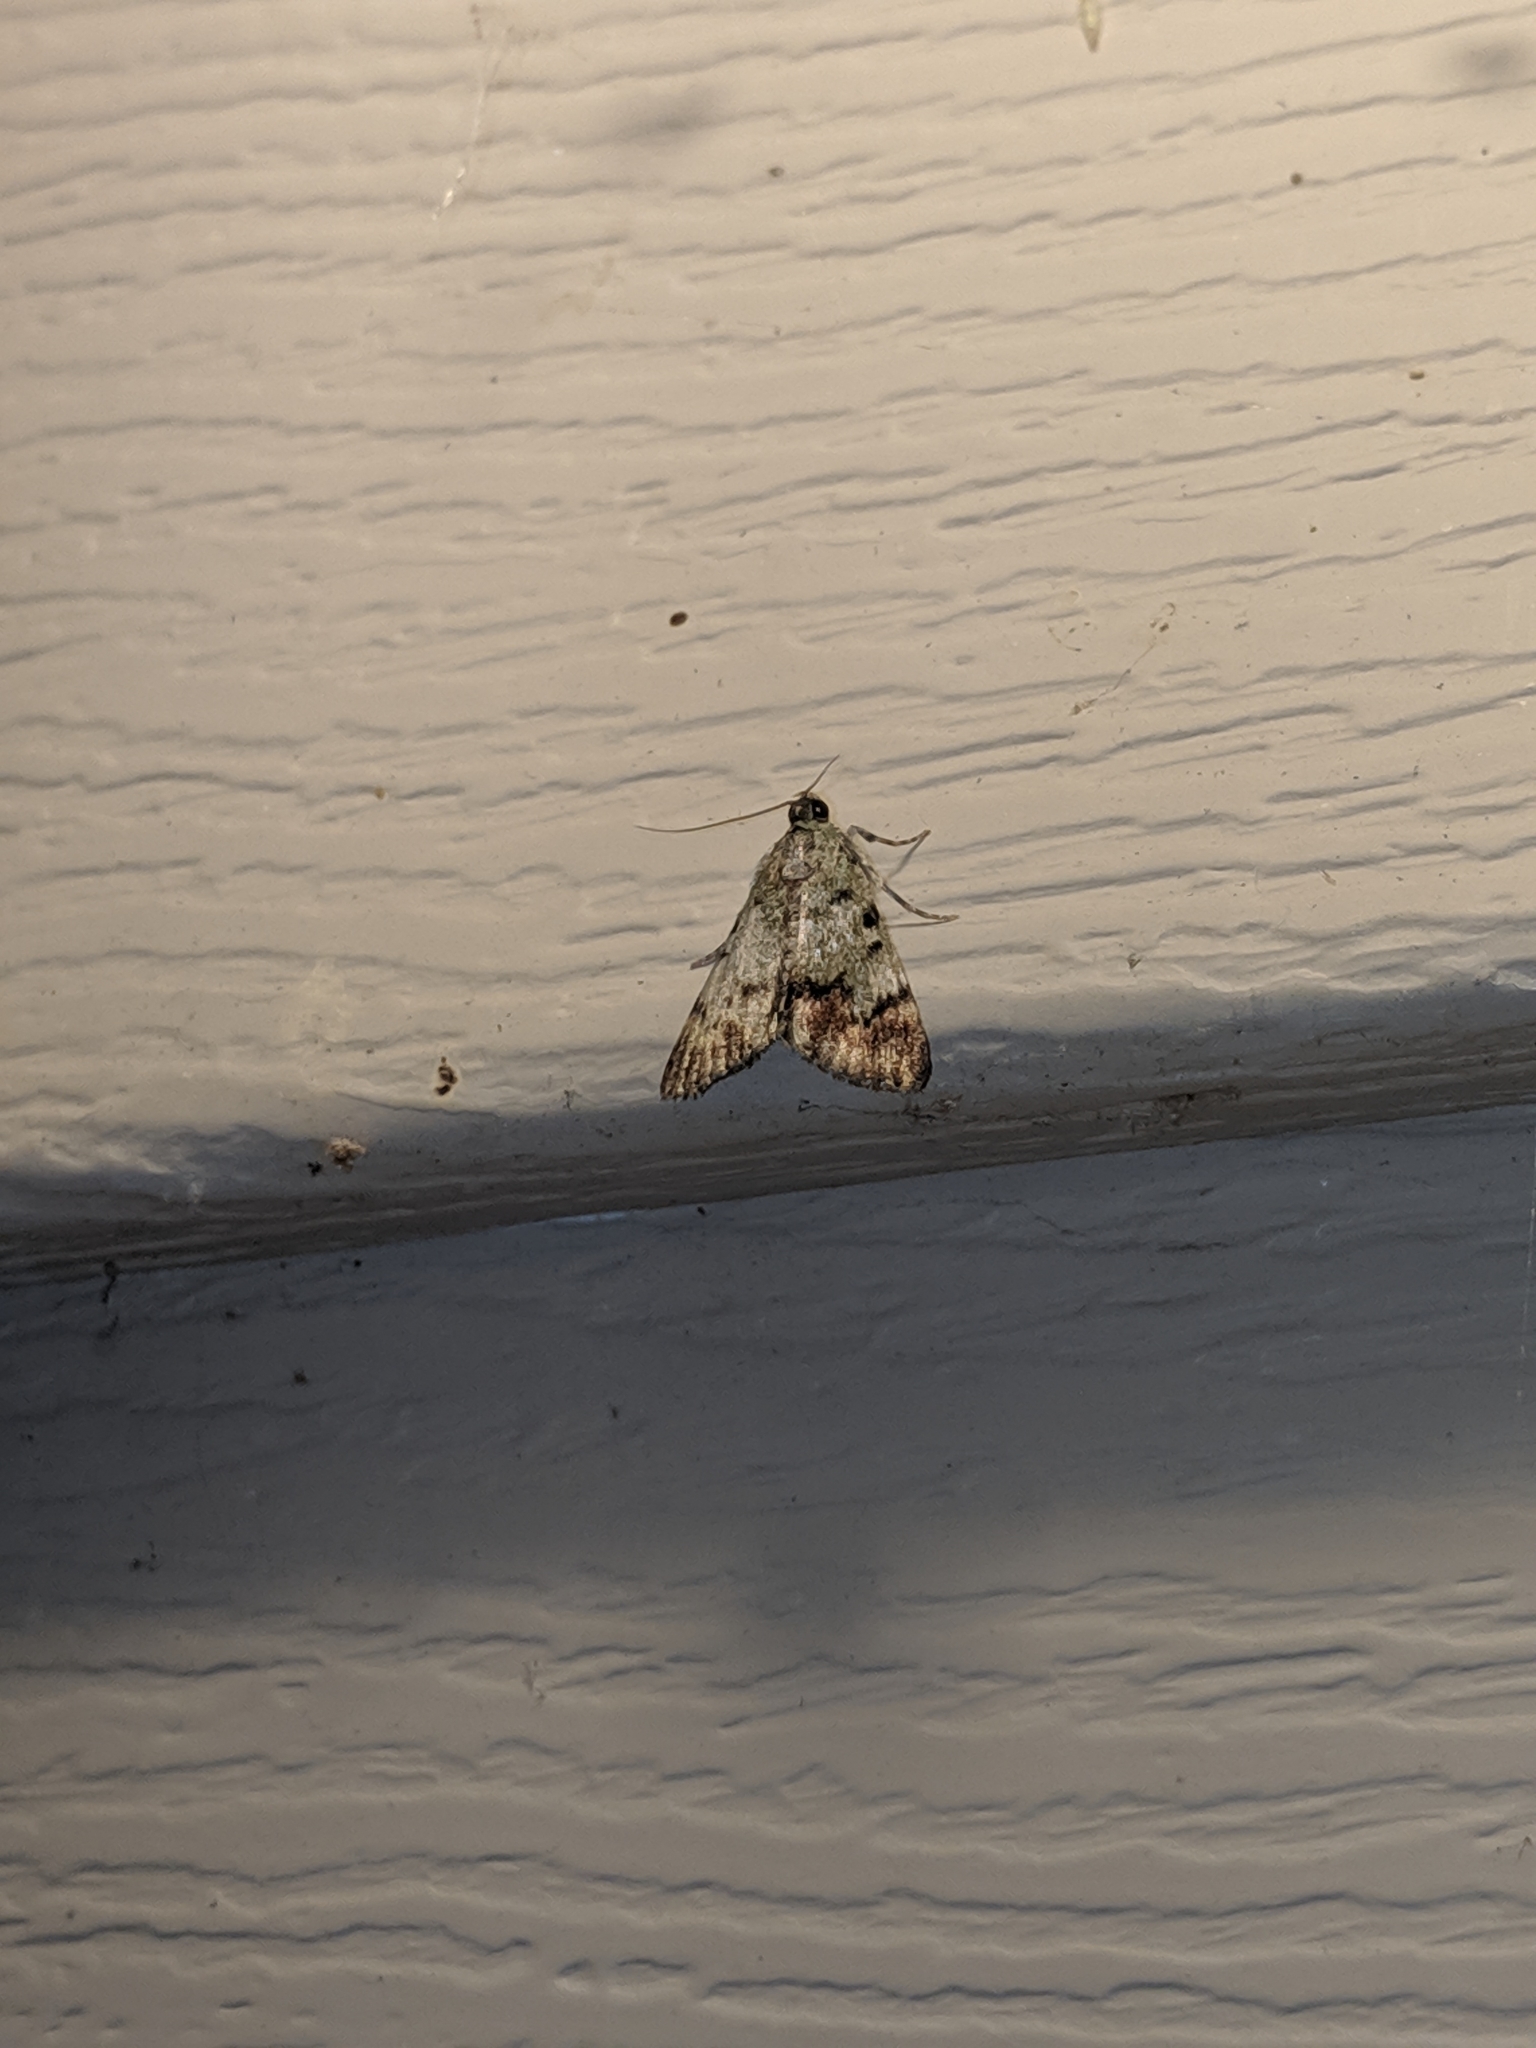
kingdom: Animalia
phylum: Arthropoda
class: Insecta
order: Lepidoptera
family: Pyralidae
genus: Epipaschia
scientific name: Epipaschia superatalis
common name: Dimorphic macalla moth
